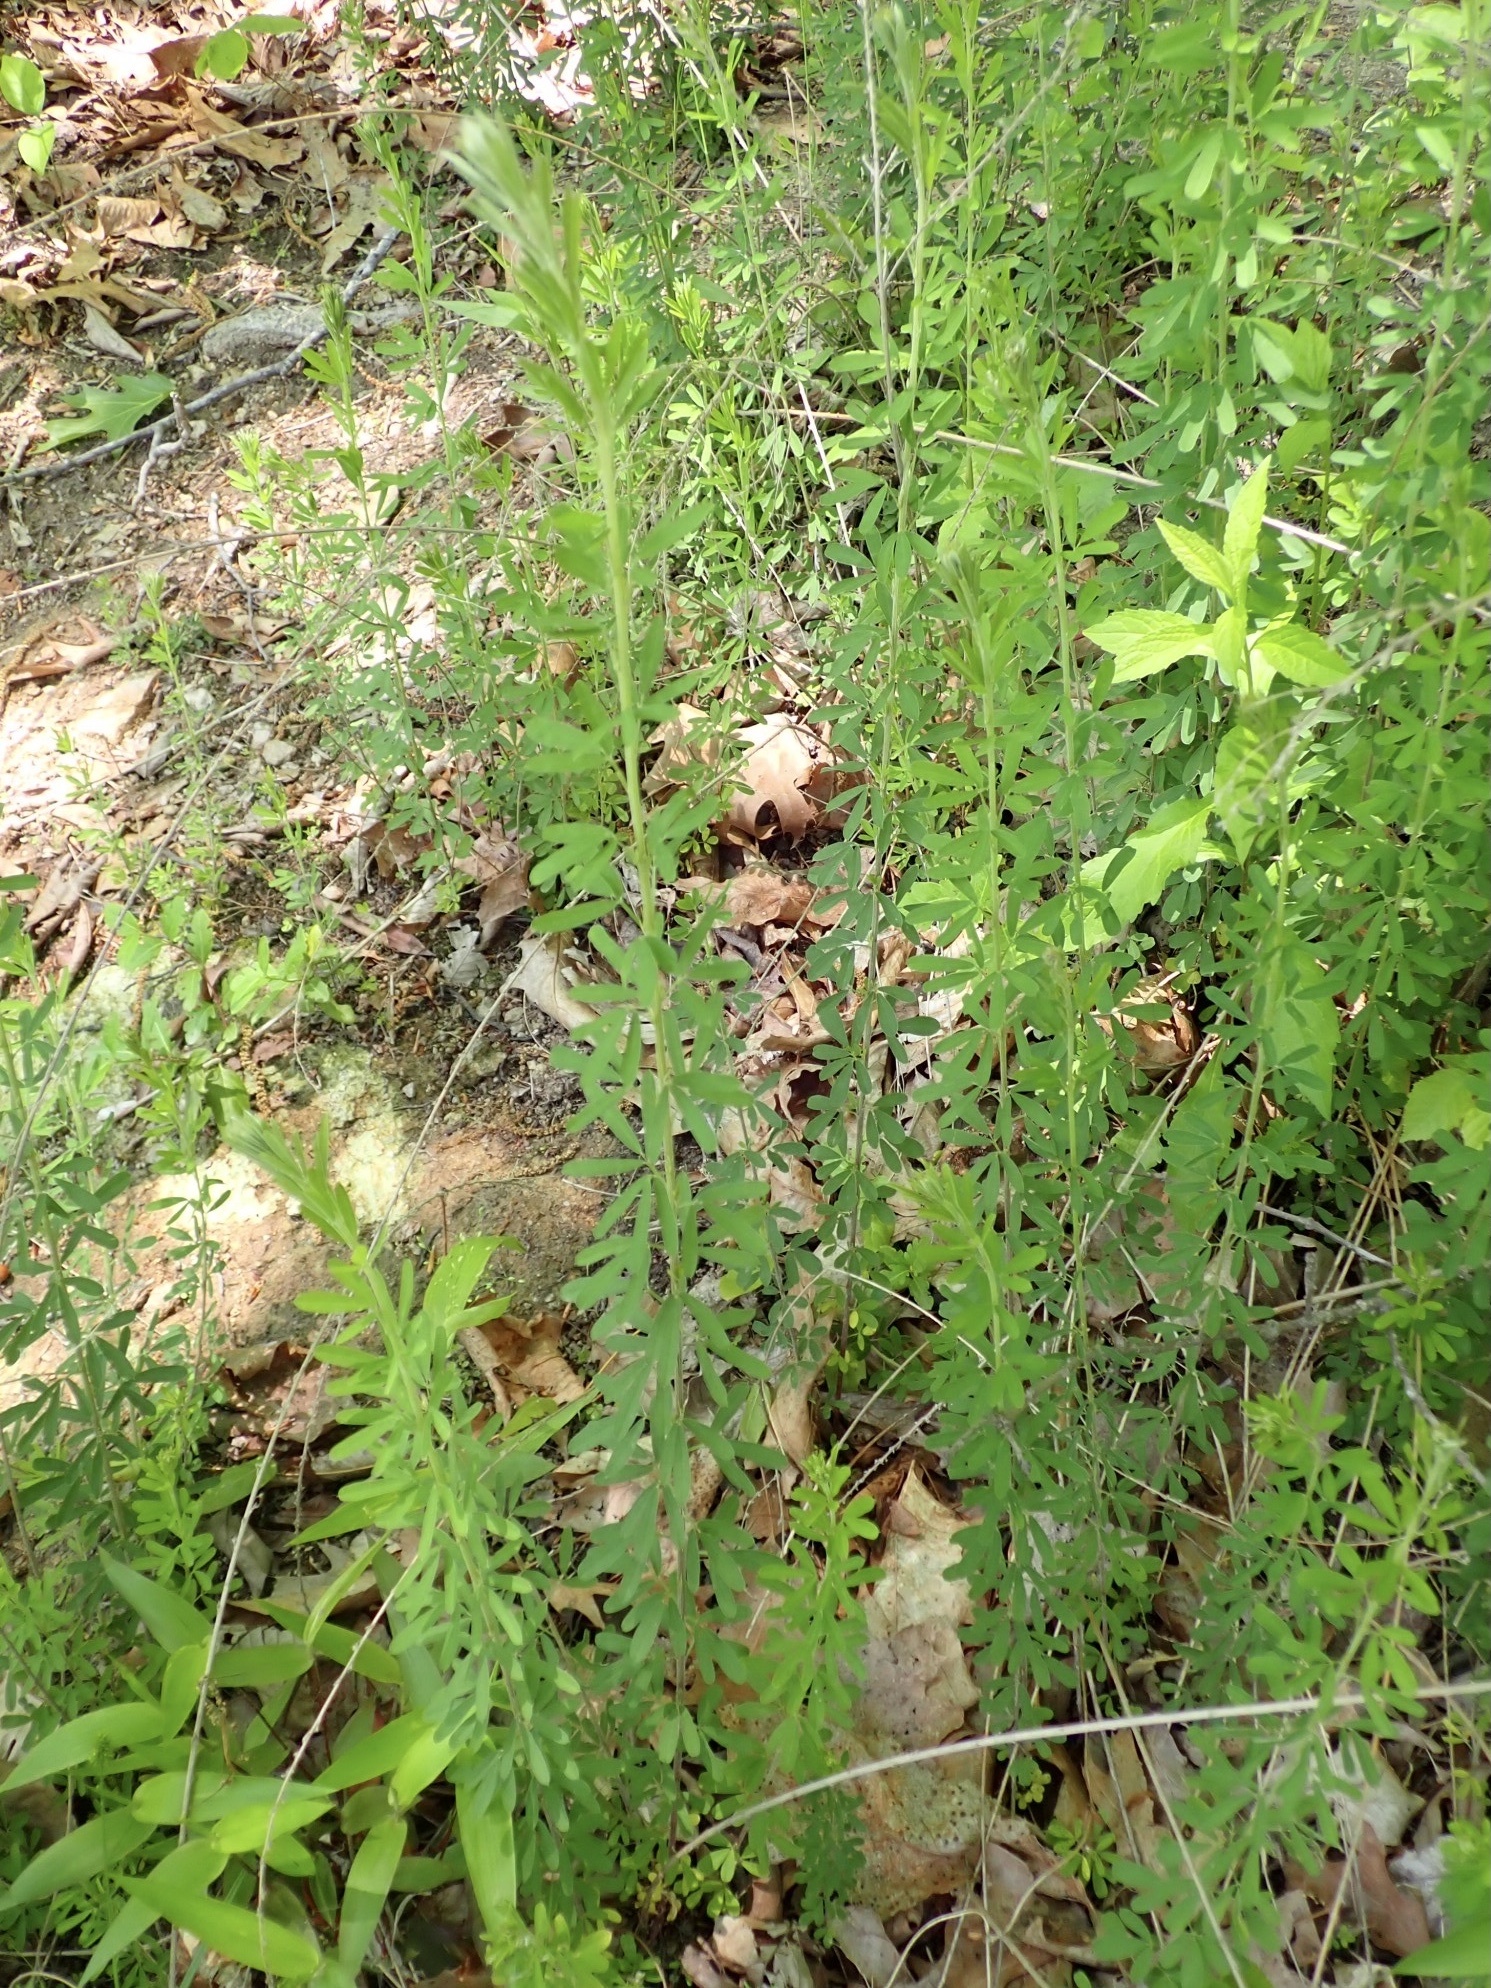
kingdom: Plantae
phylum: Tracheophyta
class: Magnoliopsida
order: Fabales
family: Fabaceae
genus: Lespedeza
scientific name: Lespedeza cuneata
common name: Chinese bush-clover
